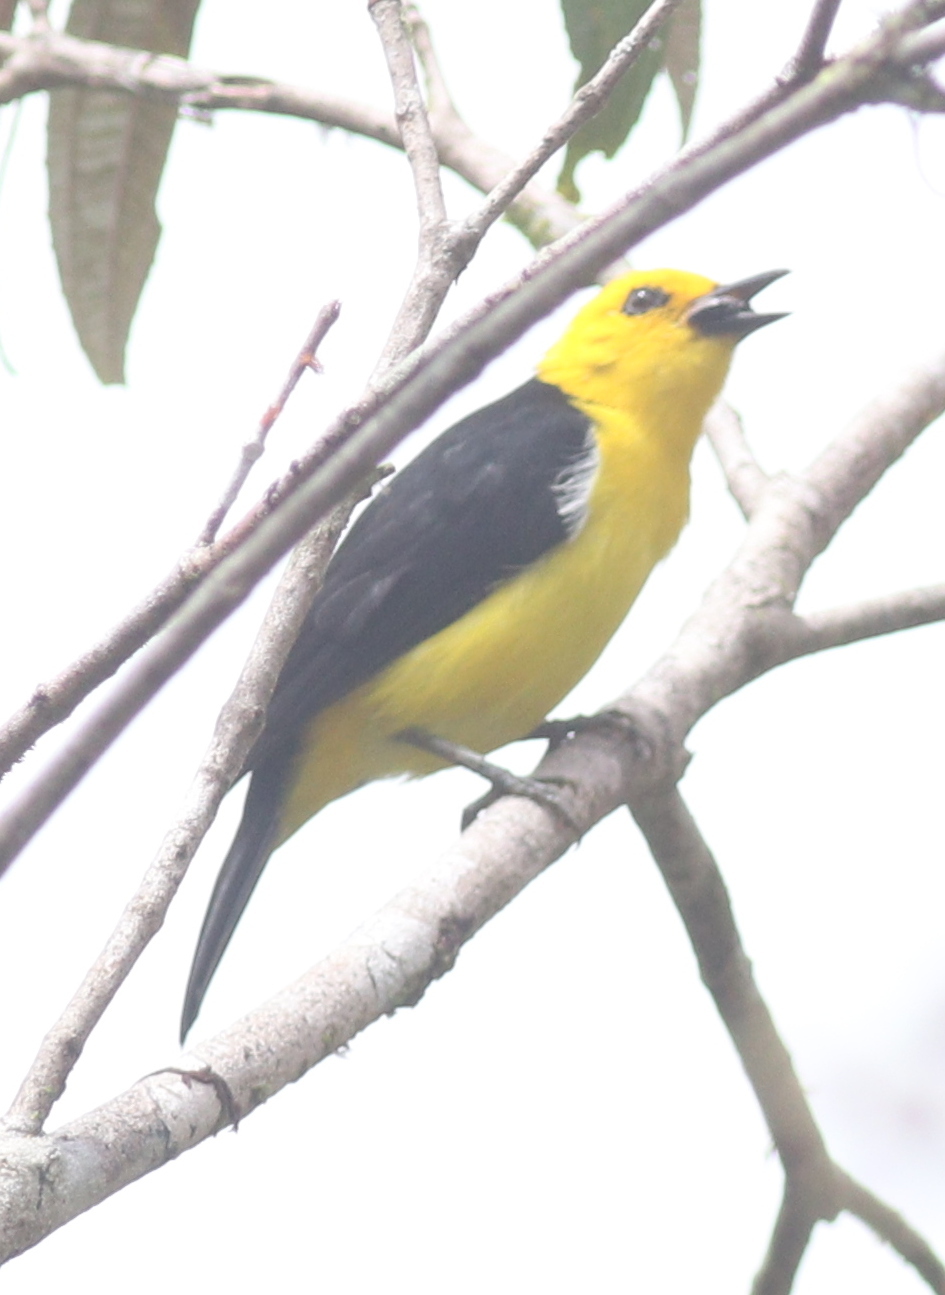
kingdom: Animalia
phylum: Chordata
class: Aves
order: Passeriformes
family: Thraupidae
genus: Chrysothlypis
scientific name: Chrysothlypis chrysomelas
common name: Black-and-yellow tanager
